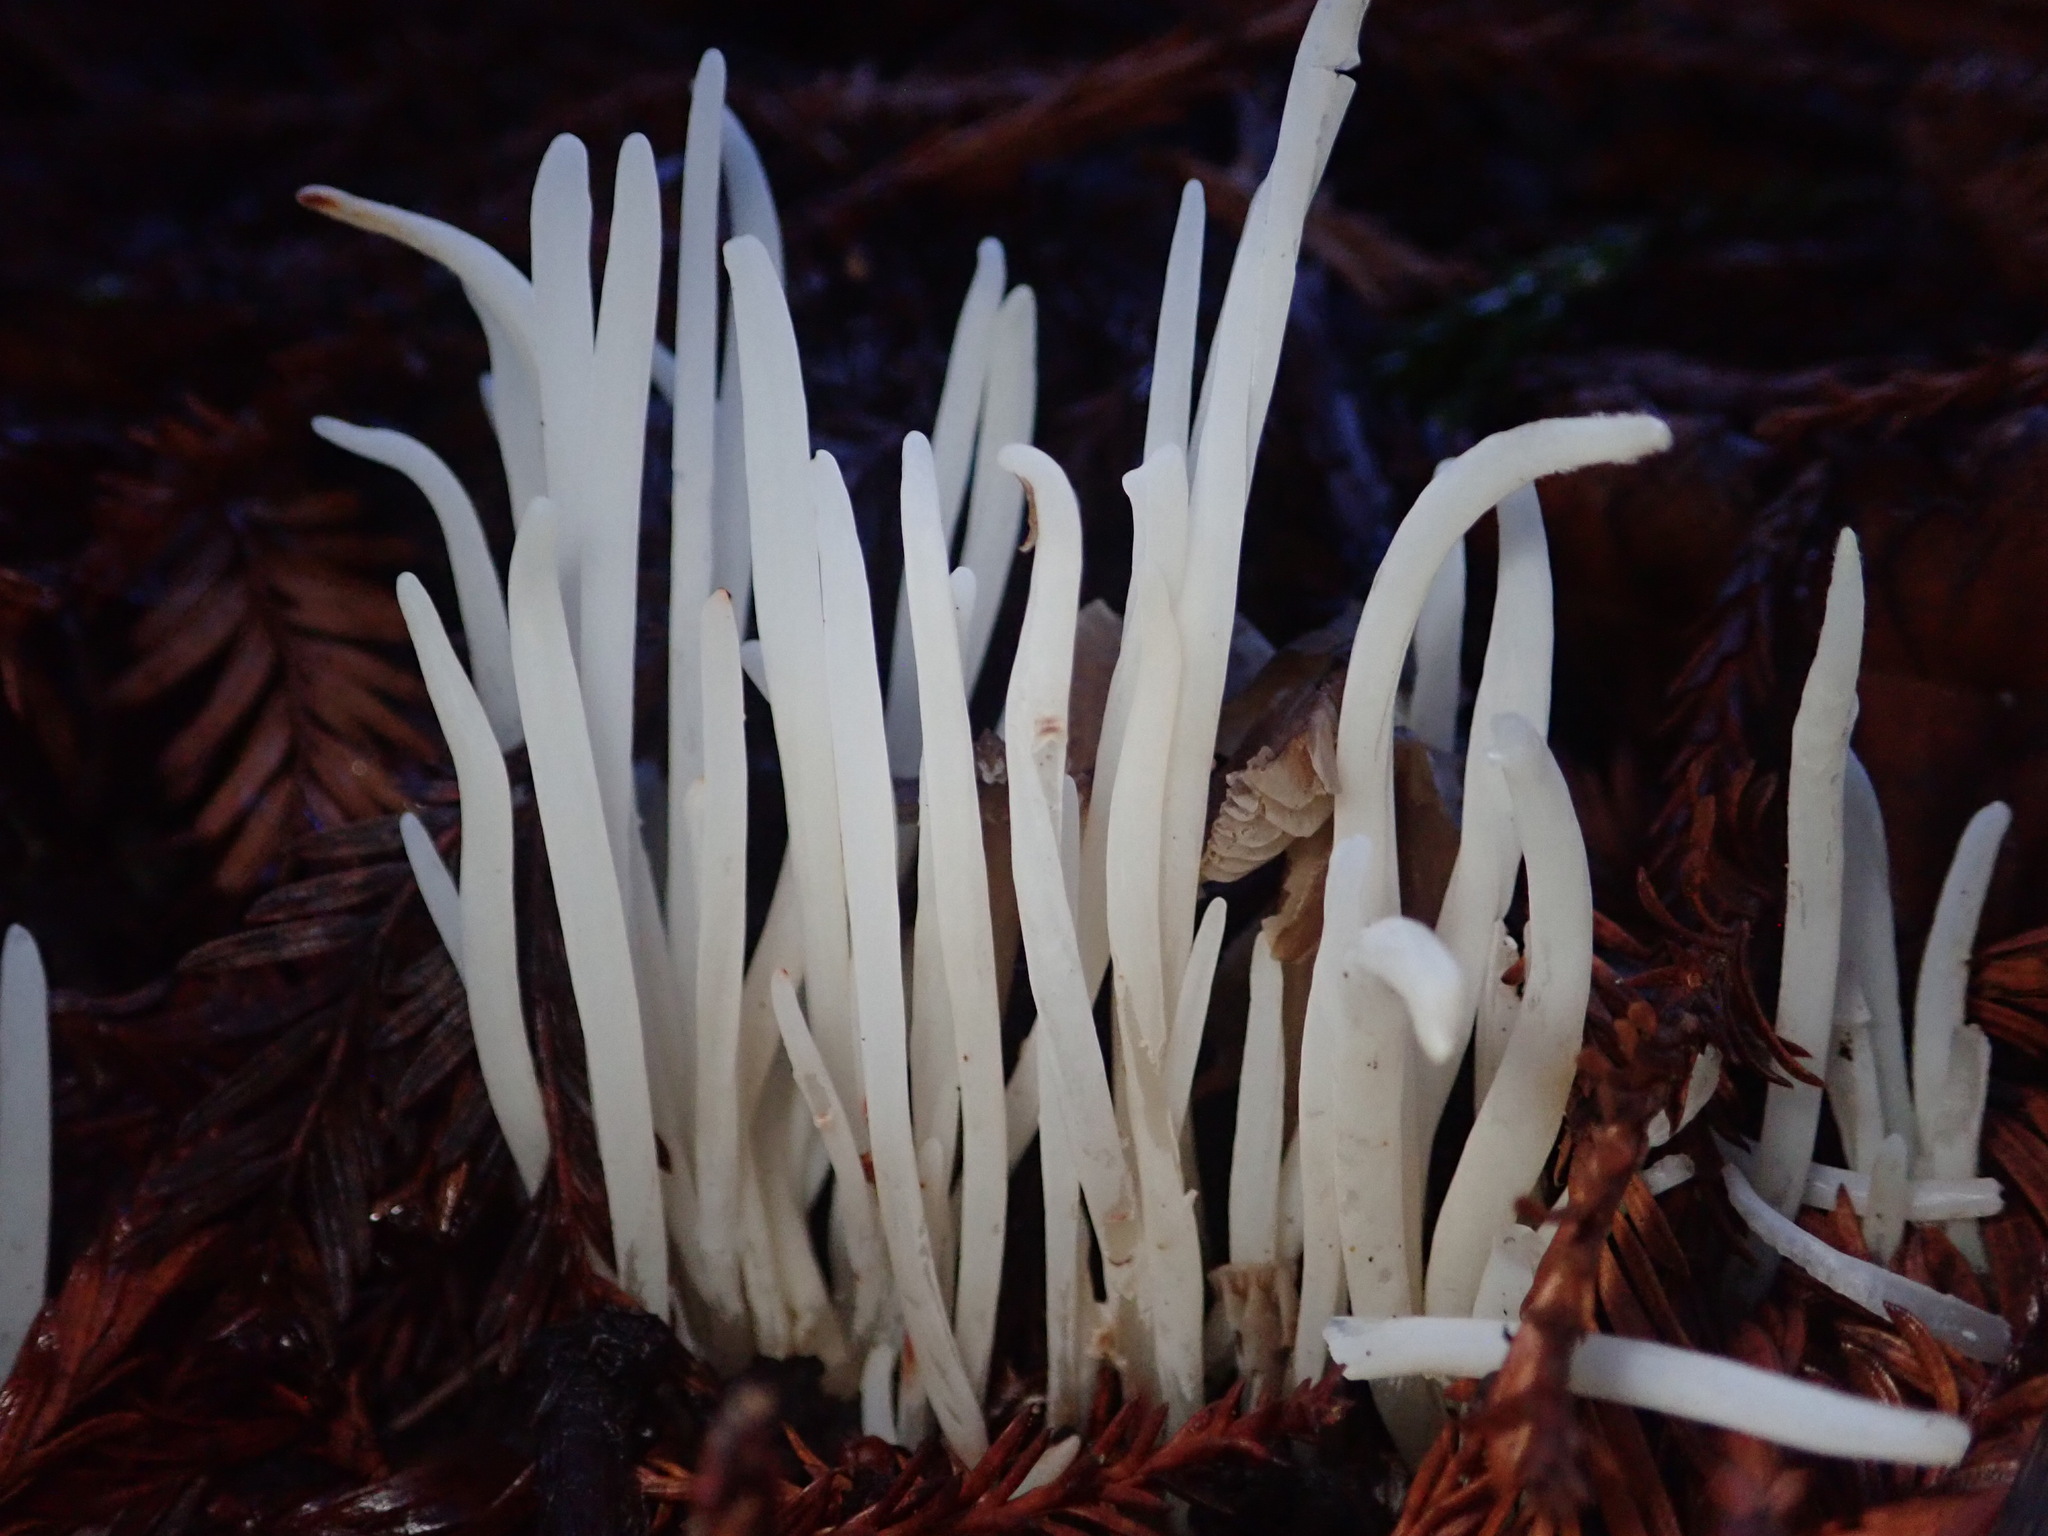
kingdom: Fungi
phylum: Basidiomycota
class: Agaricomycetes
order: Agaricales
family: Clavariaceae
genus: Clavaria
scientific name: Clavaria fragilis
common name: White spindles
